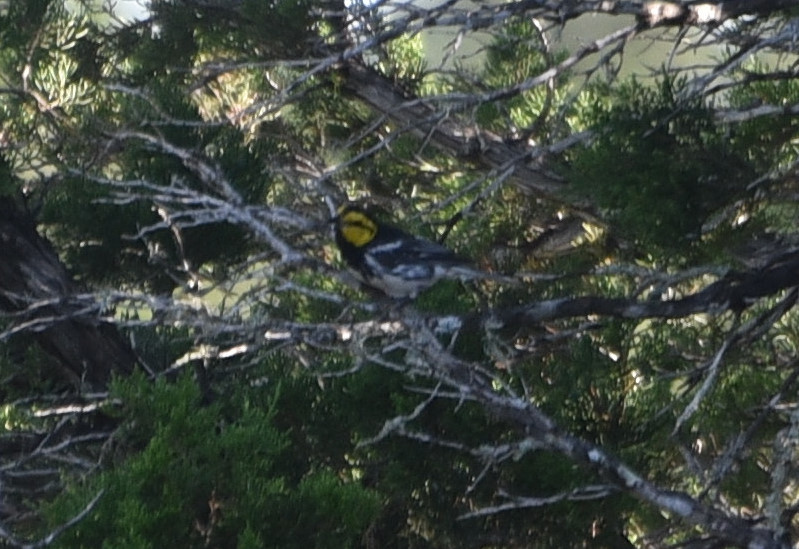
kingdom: Animalia
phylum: Chordata
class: Aves
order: Passeriformes
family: Parulidae
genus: Setophaga
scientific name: Setophaga chrysoparia
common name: Golden-cheeked warbler
